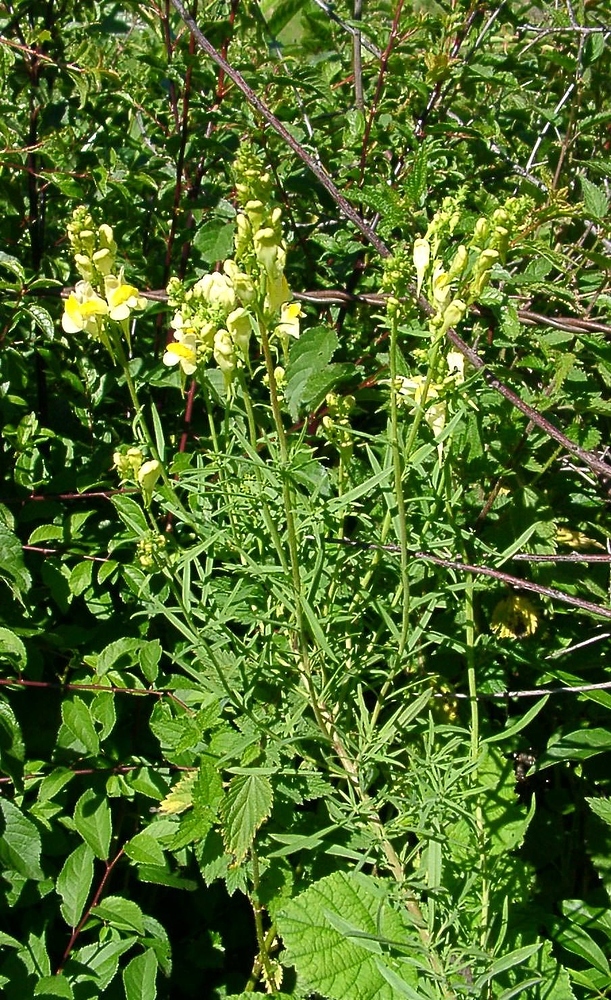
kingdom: Plantae
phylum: Tracheophyta
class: Magnoliopsida
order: Lamiales
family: Plantaginaceae
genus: Linaria
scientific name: Linaria vulgaris
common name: Butter and eggs
